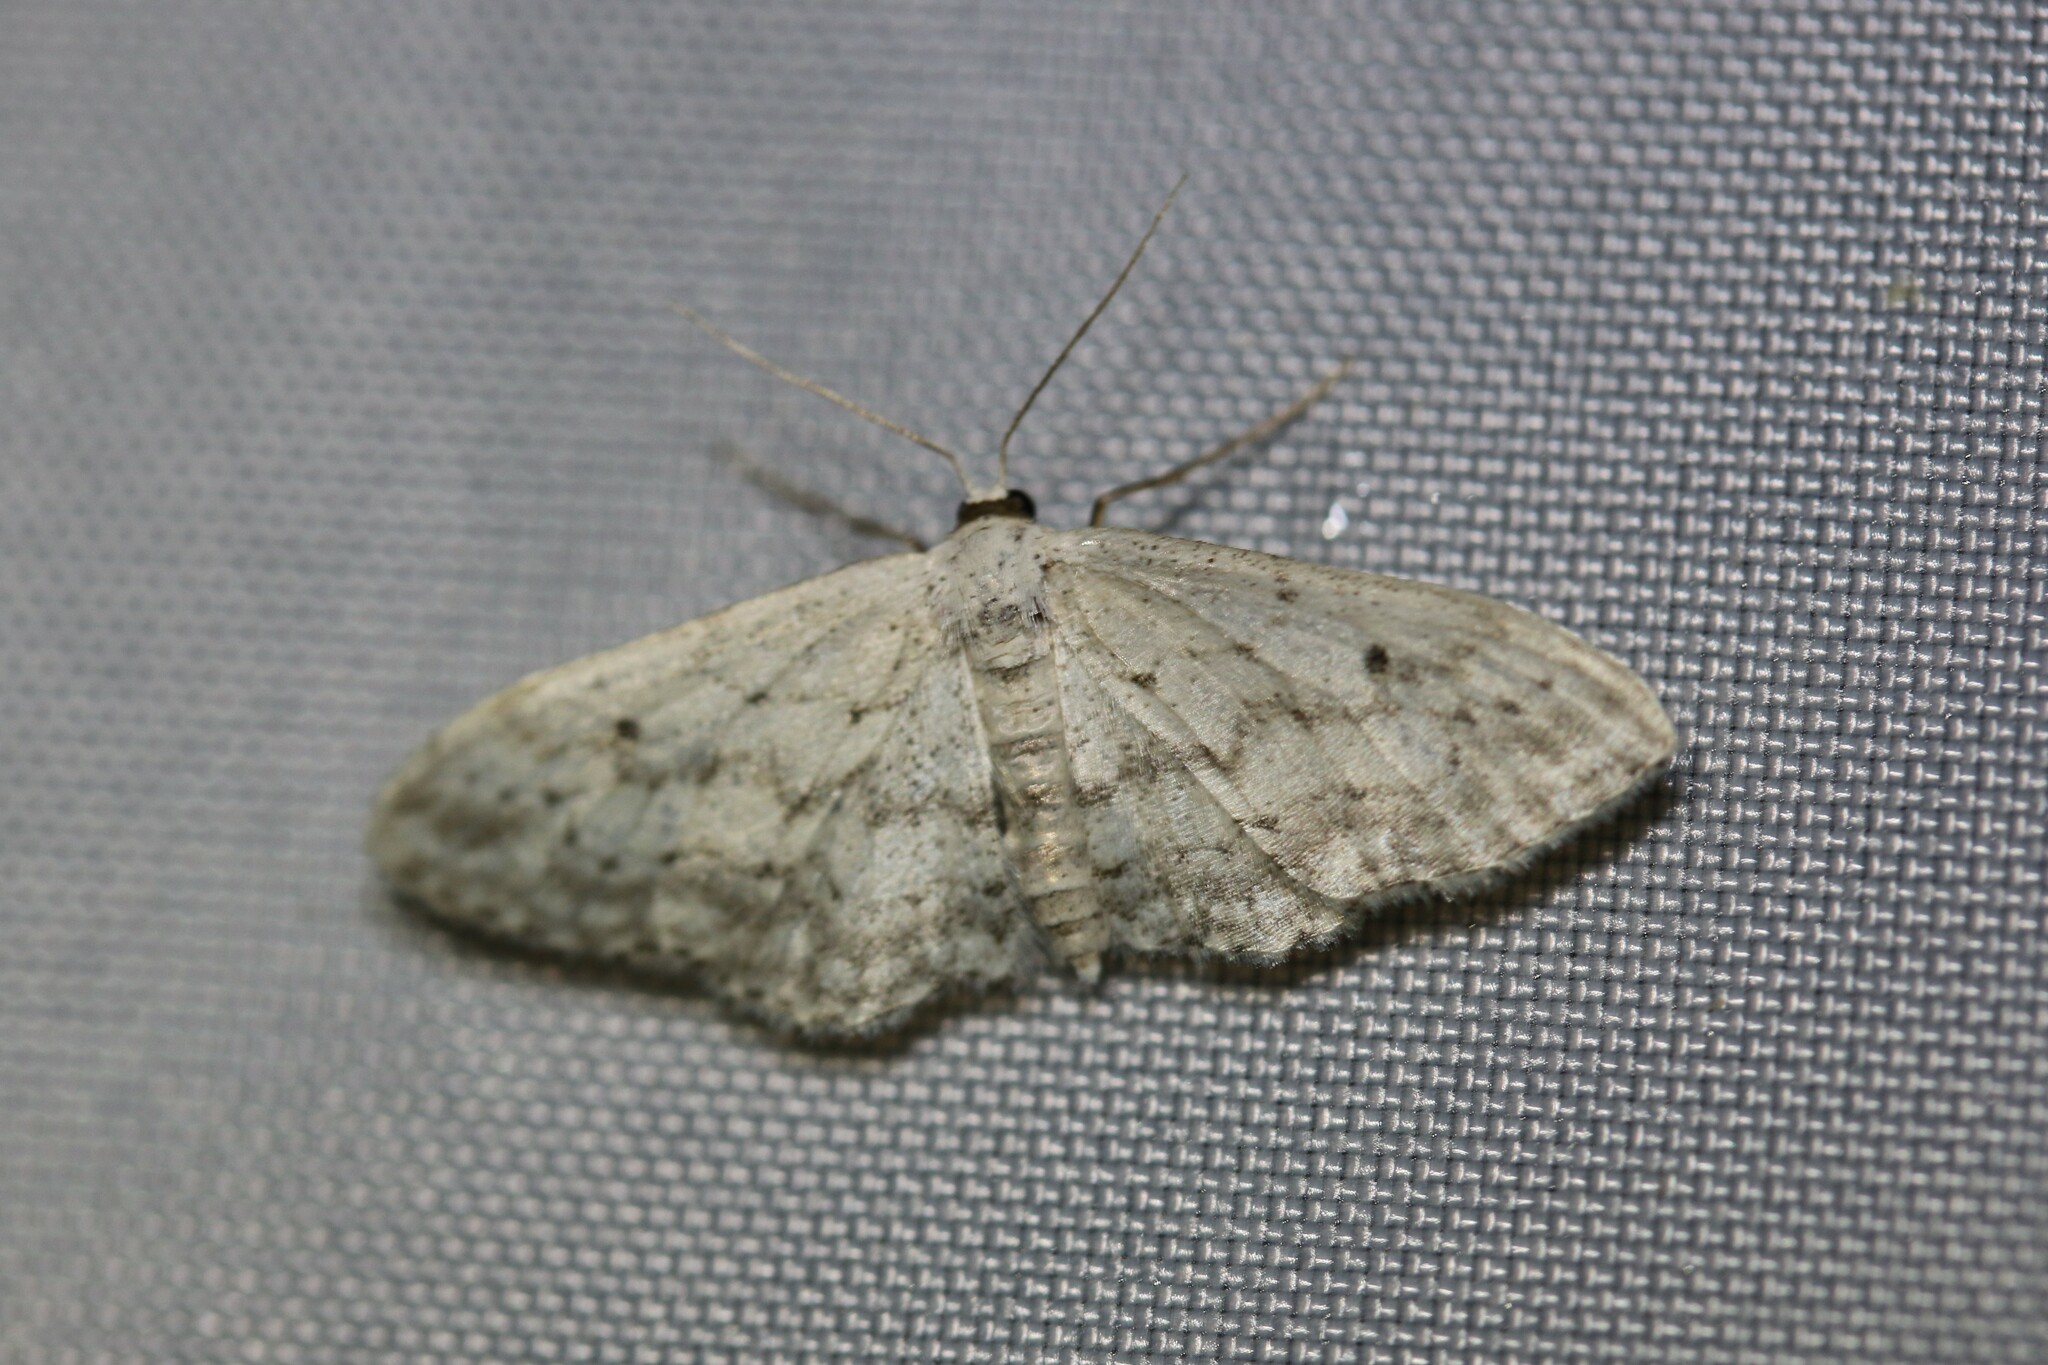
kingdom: Animalia
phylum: Arthropoda
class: Insecta
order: Lepidoptera
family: Geometridae
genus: Idaea
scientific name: Idaea seriata
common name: Small dusty wave
